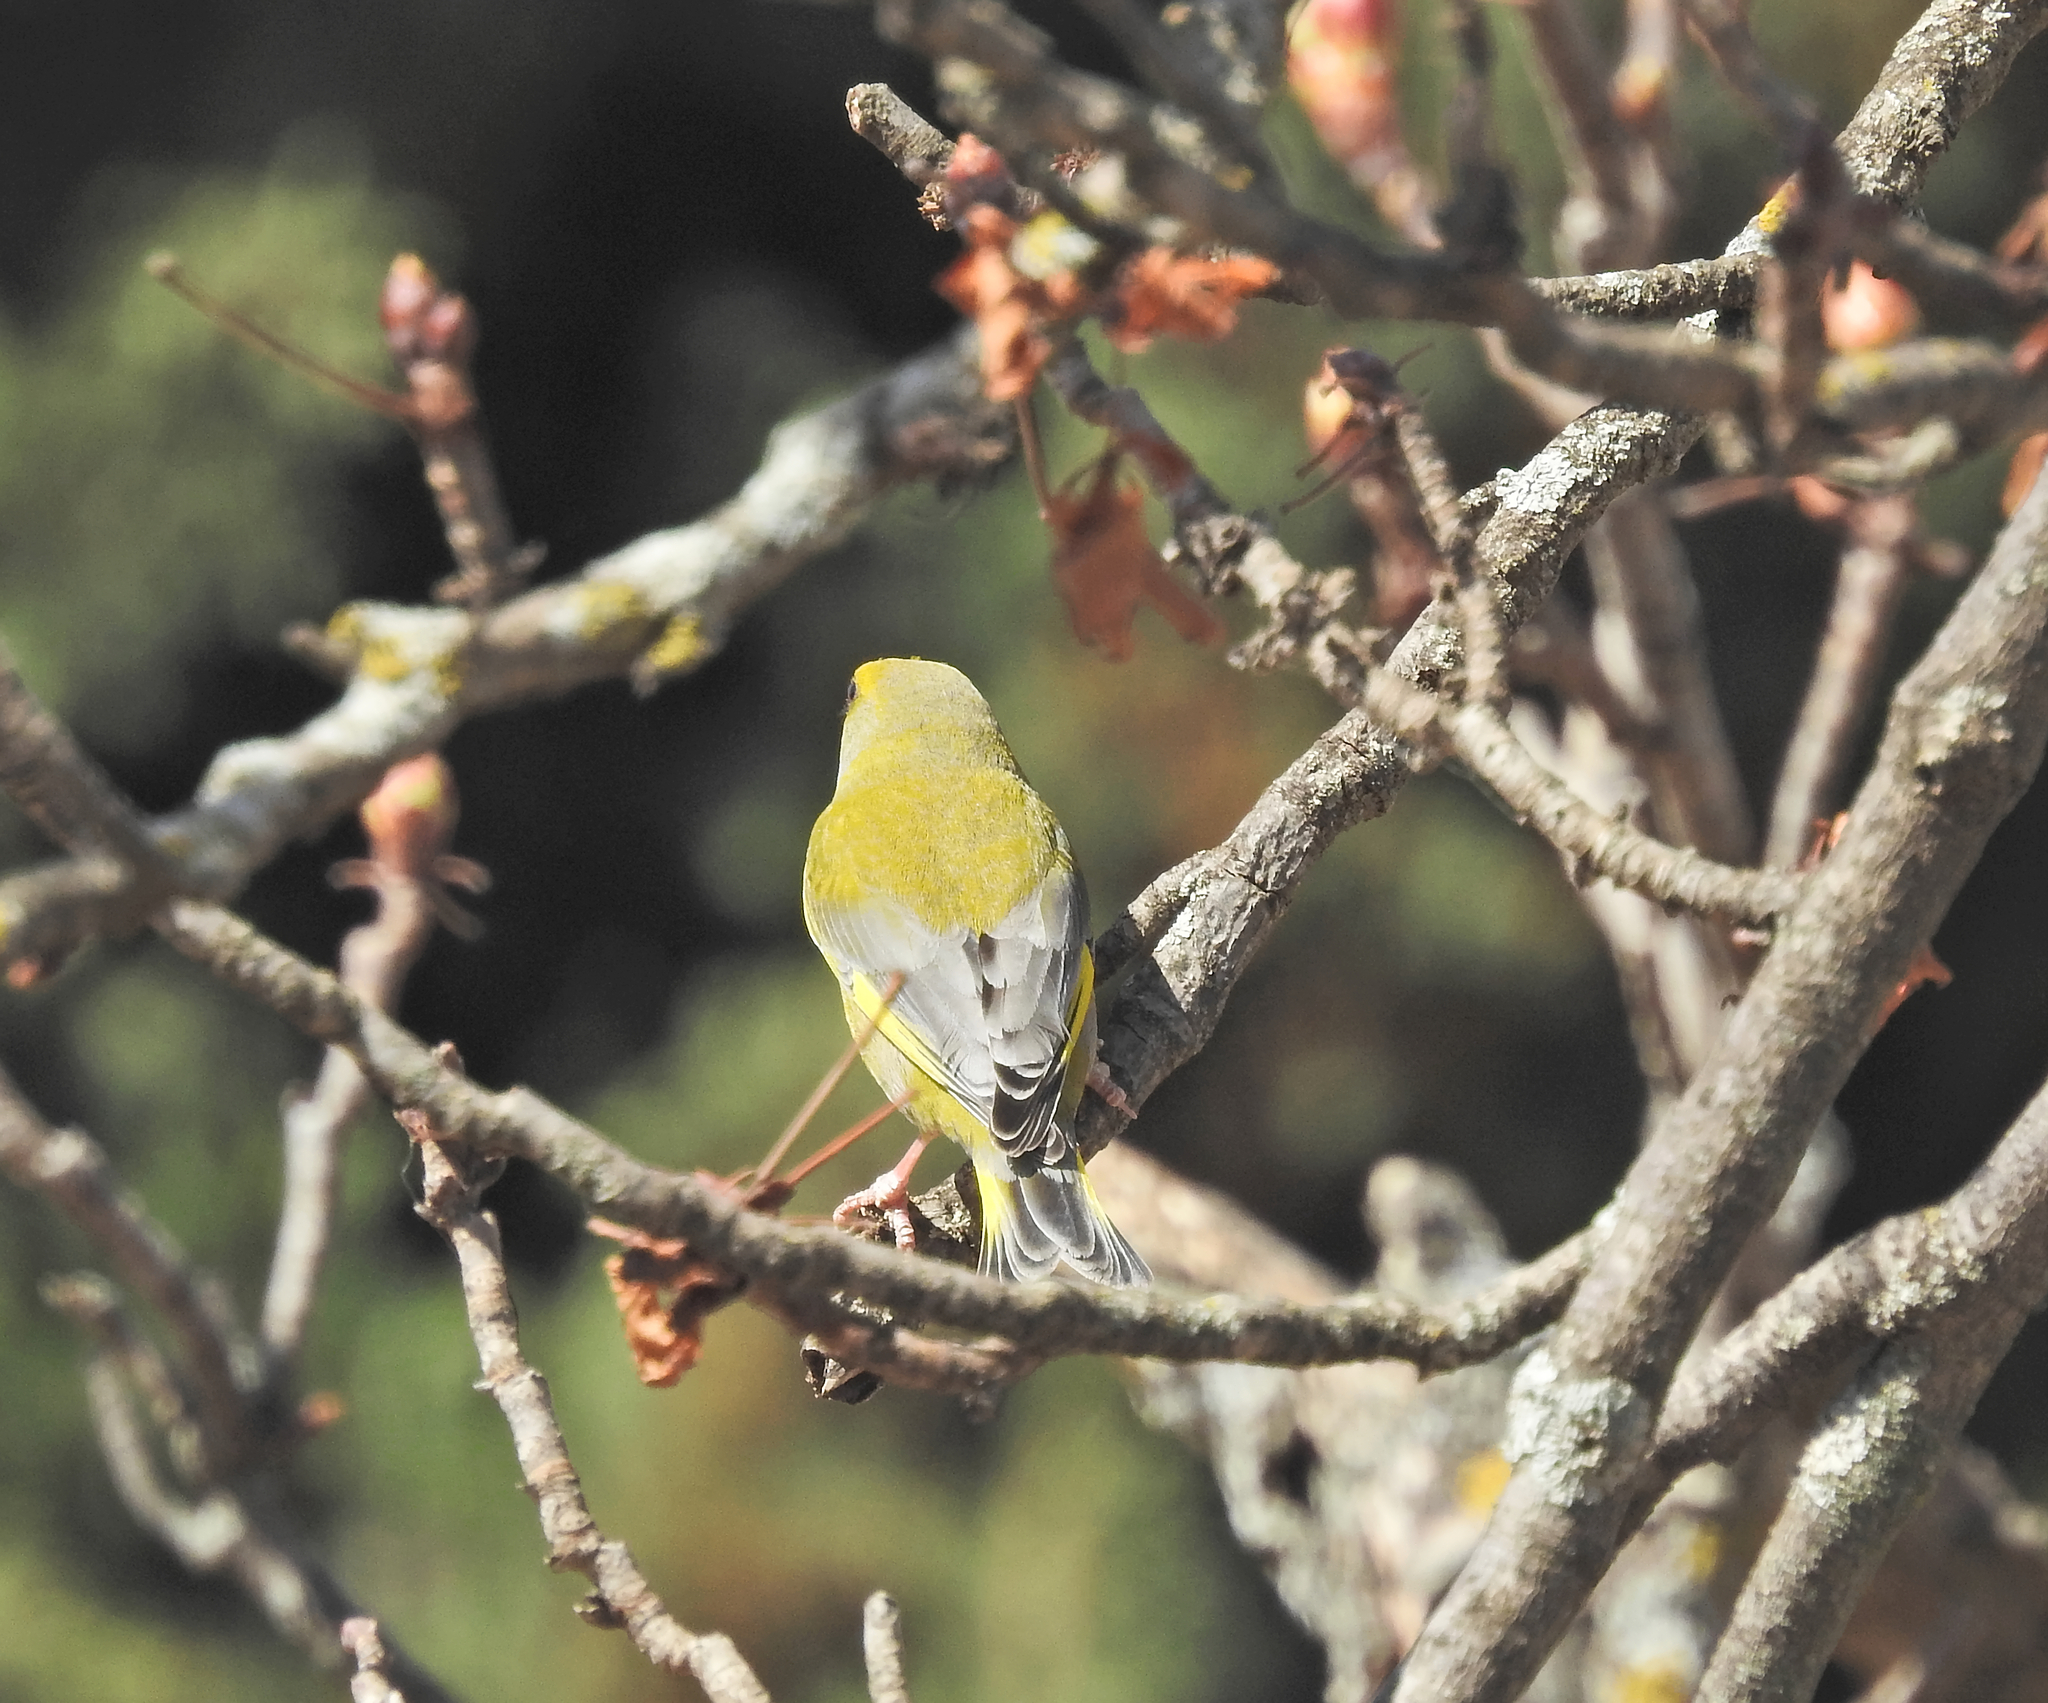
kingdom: Plantae
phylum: Tracheophyta
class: Liliopsida
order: Poales
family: Poaceae
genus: Chloris
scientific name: Chloris chloris
